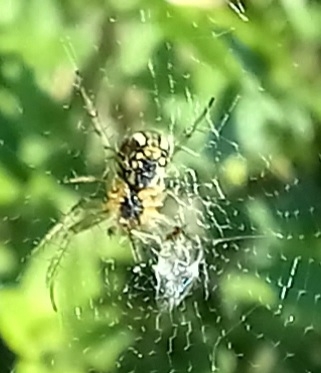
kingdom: Animalia
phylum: Arthropoda
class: Arachnida
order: Araneae
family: Araneidae
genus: Mangora
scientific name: Mangora acalypha
